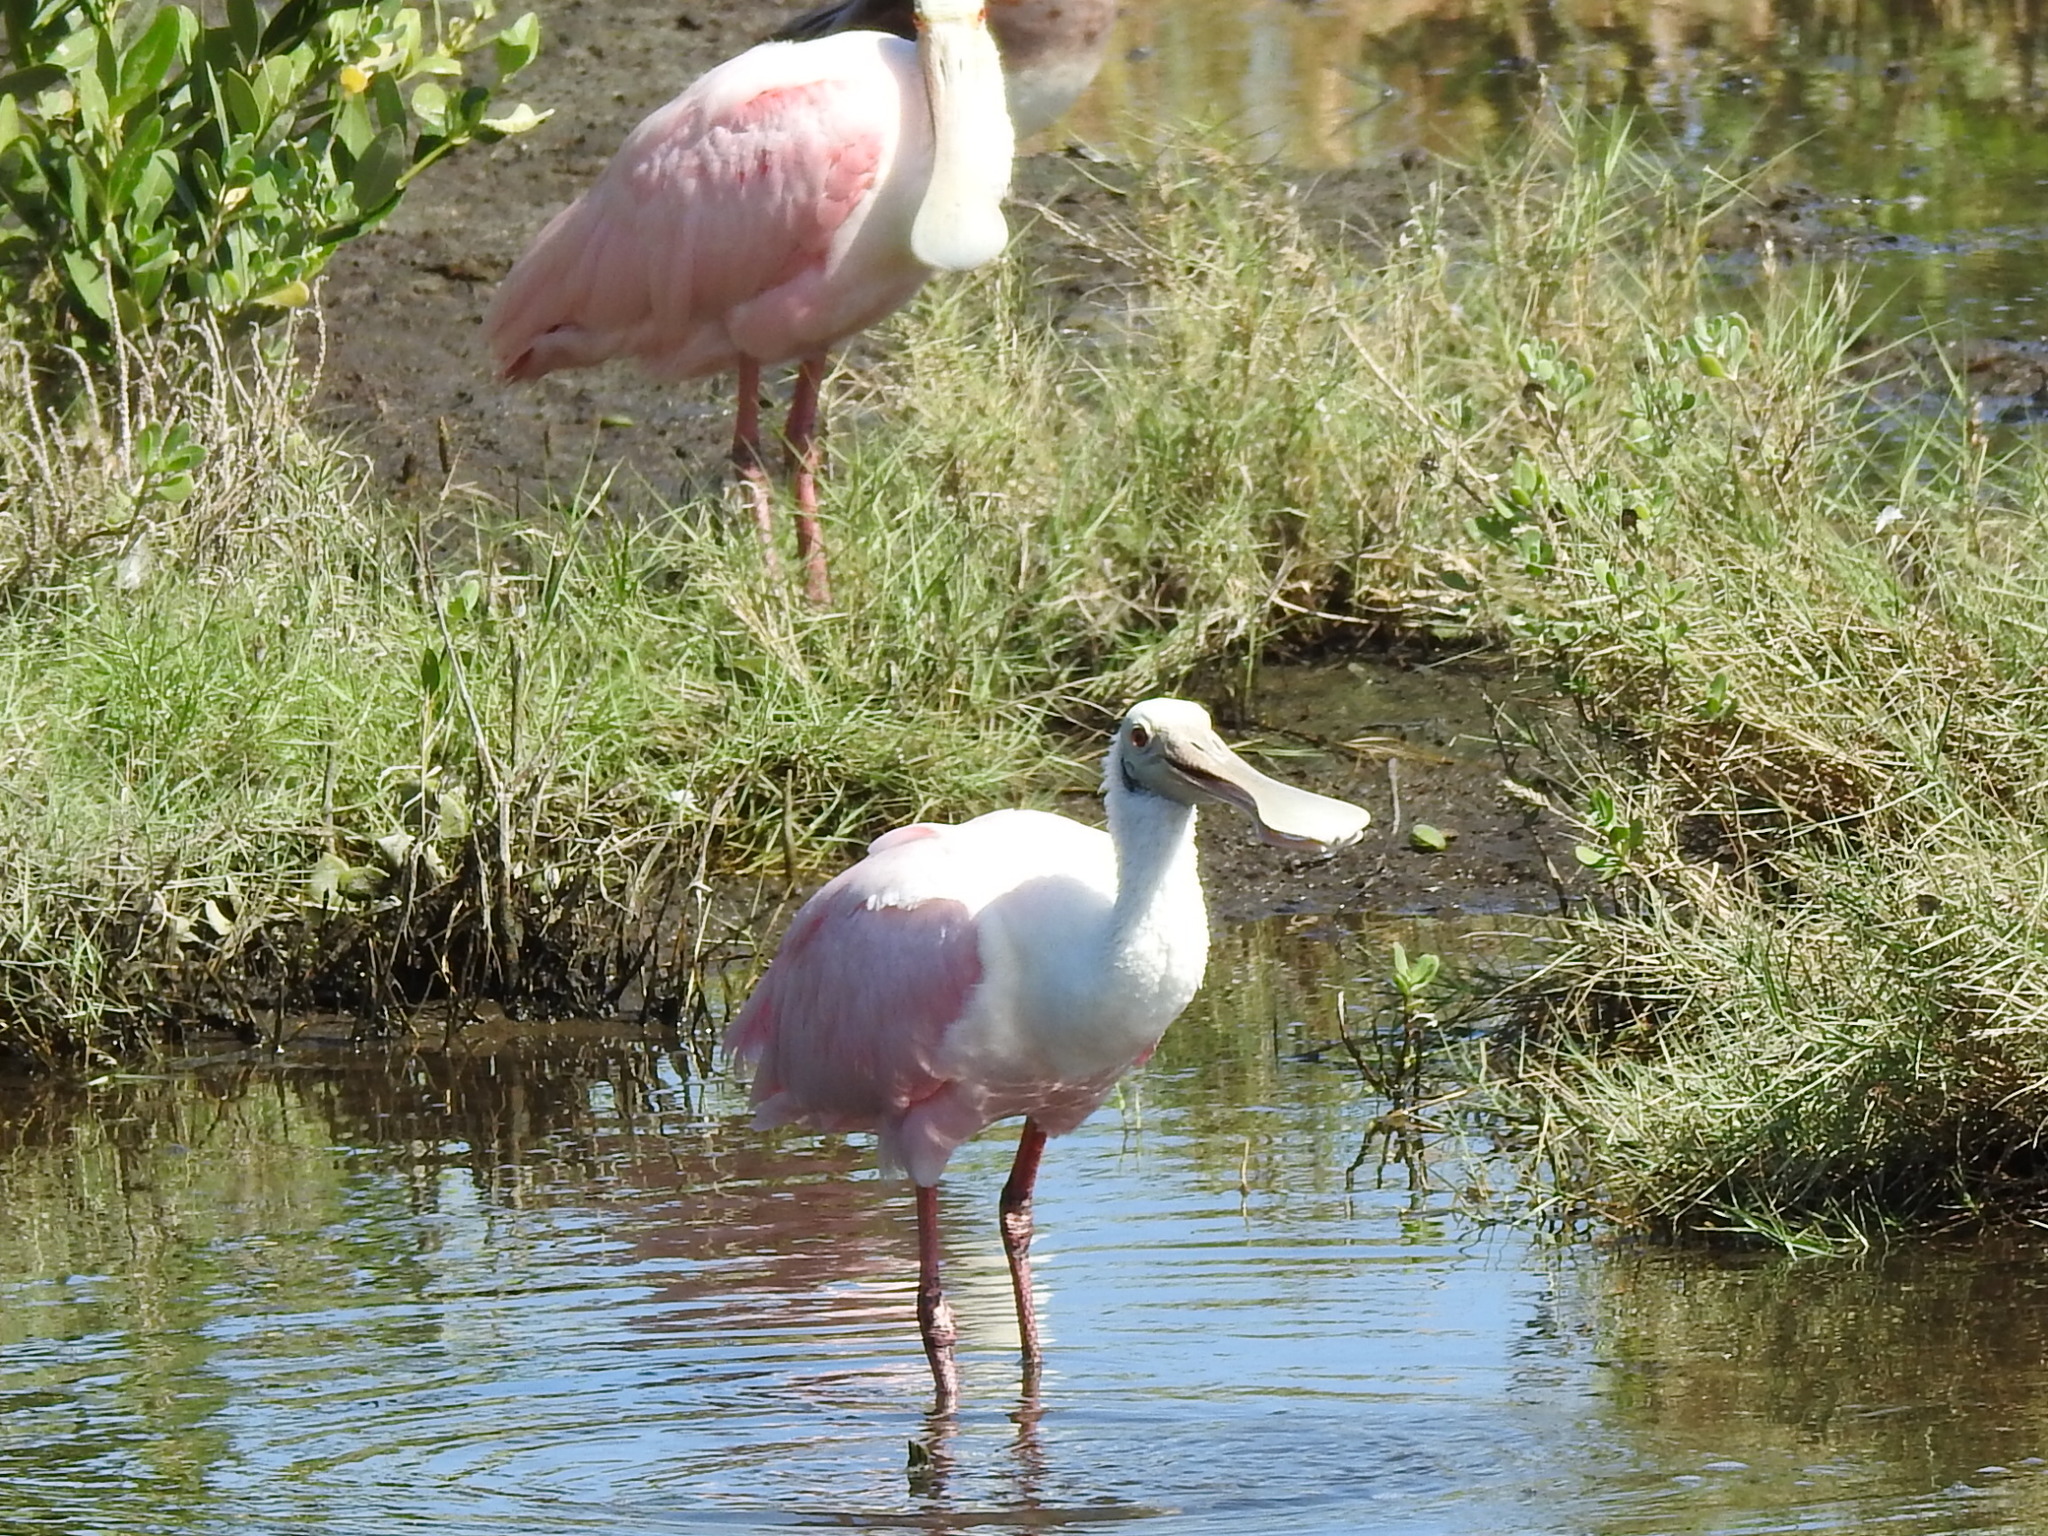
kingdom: Animalia
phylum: Chordata
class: Aves
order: Pelecaniformes
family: Threskiornithidae
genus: Platalea
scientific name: Platalea ajaja
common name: Roseate spoonbill
